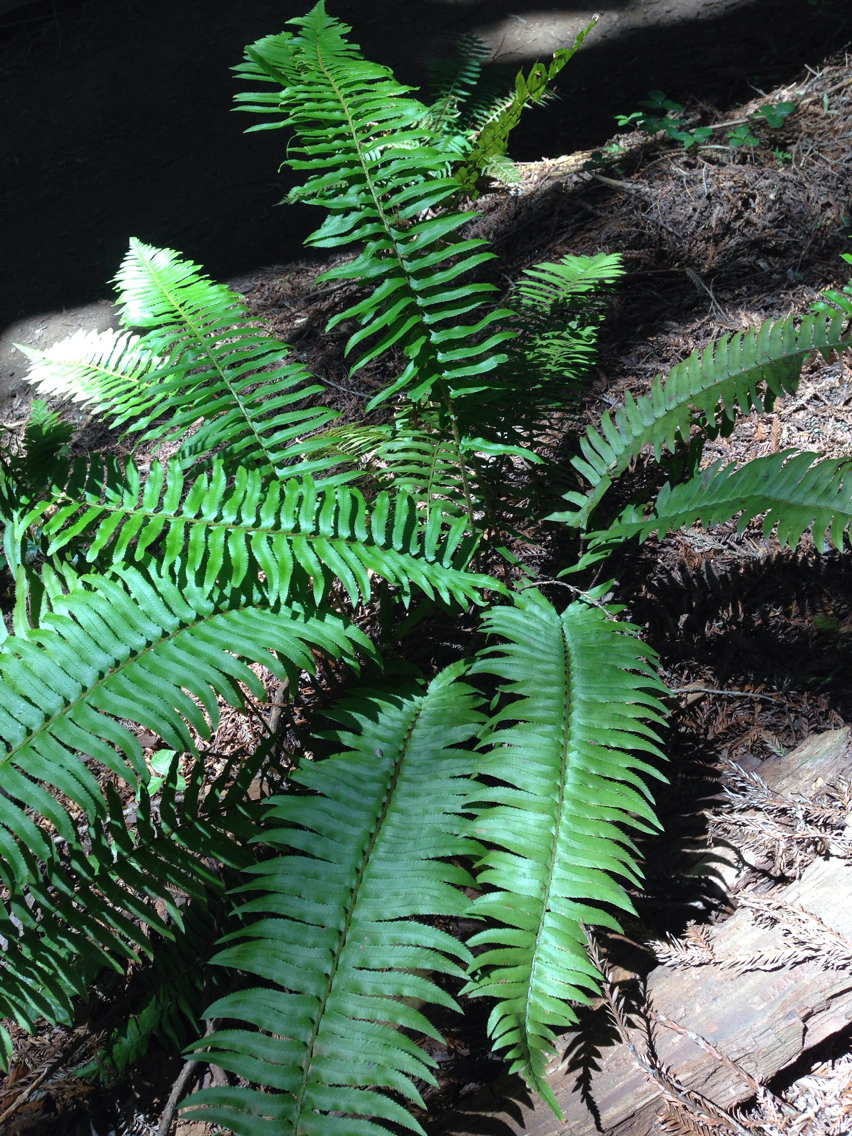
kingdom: Plantae
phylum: Tracheophyta
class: Polypodiopsida
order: Polypodiales
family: Dryopteridaceae
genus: Polystichum
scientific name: Polystichum munitum
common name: Western sword-fern
